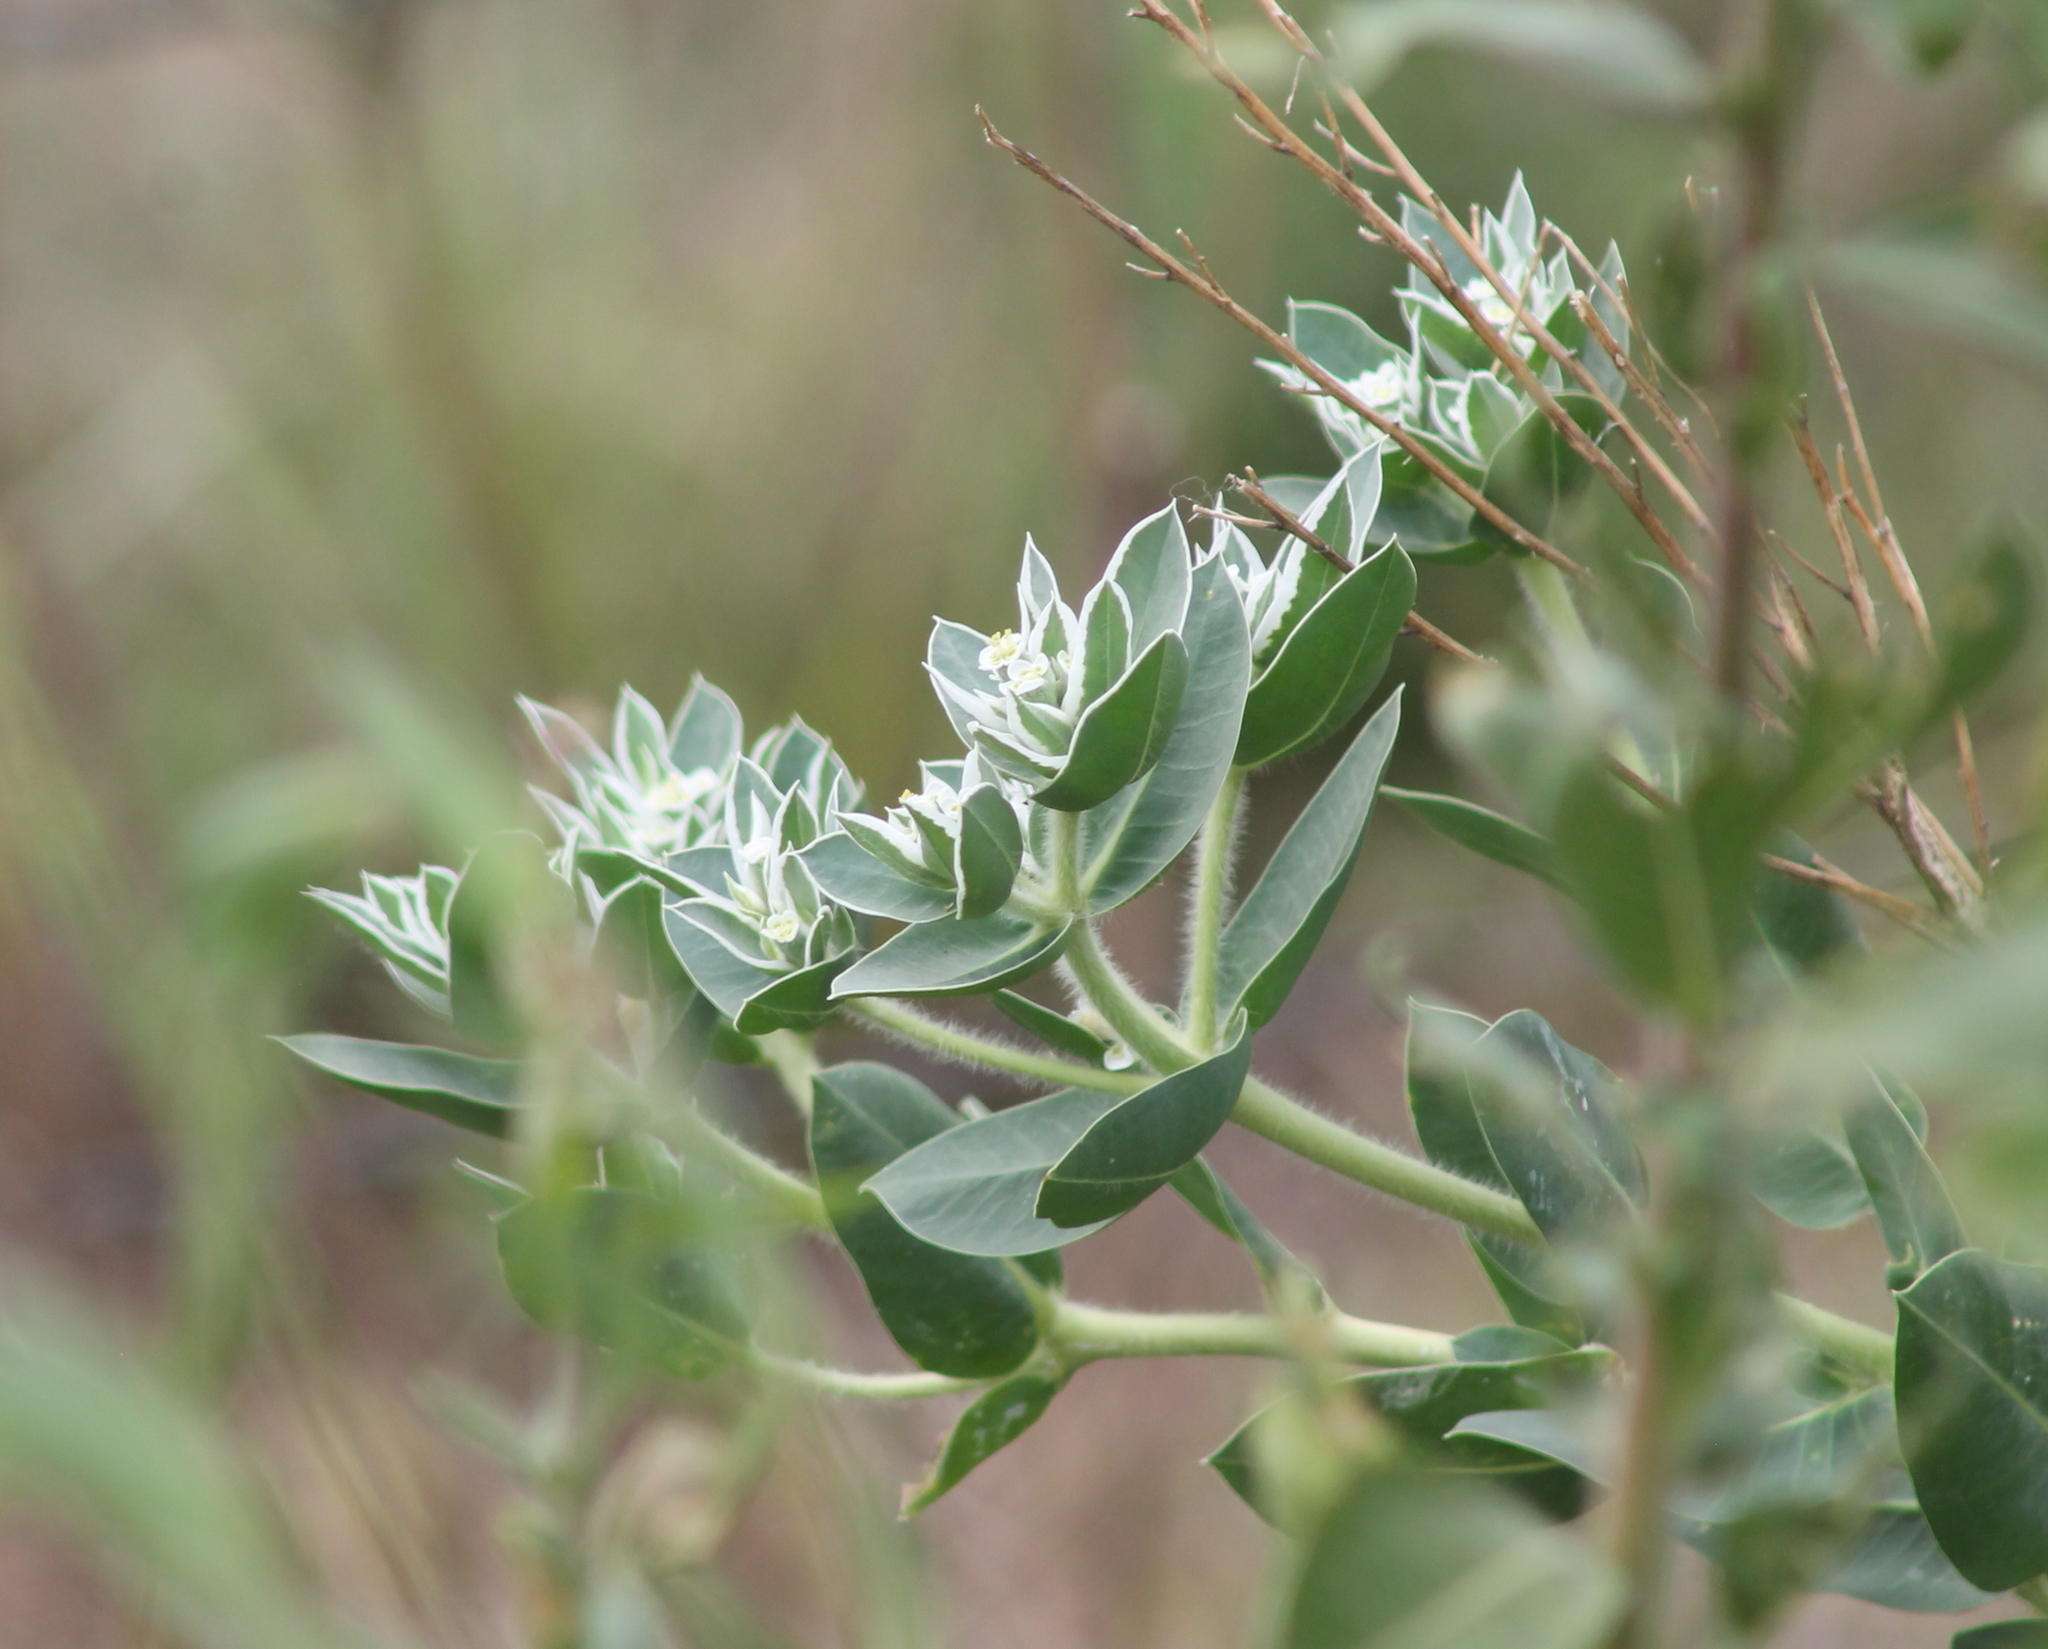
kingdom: Plantae
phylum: Tracheophyta
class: Magnoliopsida
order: Malpighiales
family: Euphorbiaceae
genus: Euphorbia
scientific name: Euphorbia marginata
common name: Ghostweed
